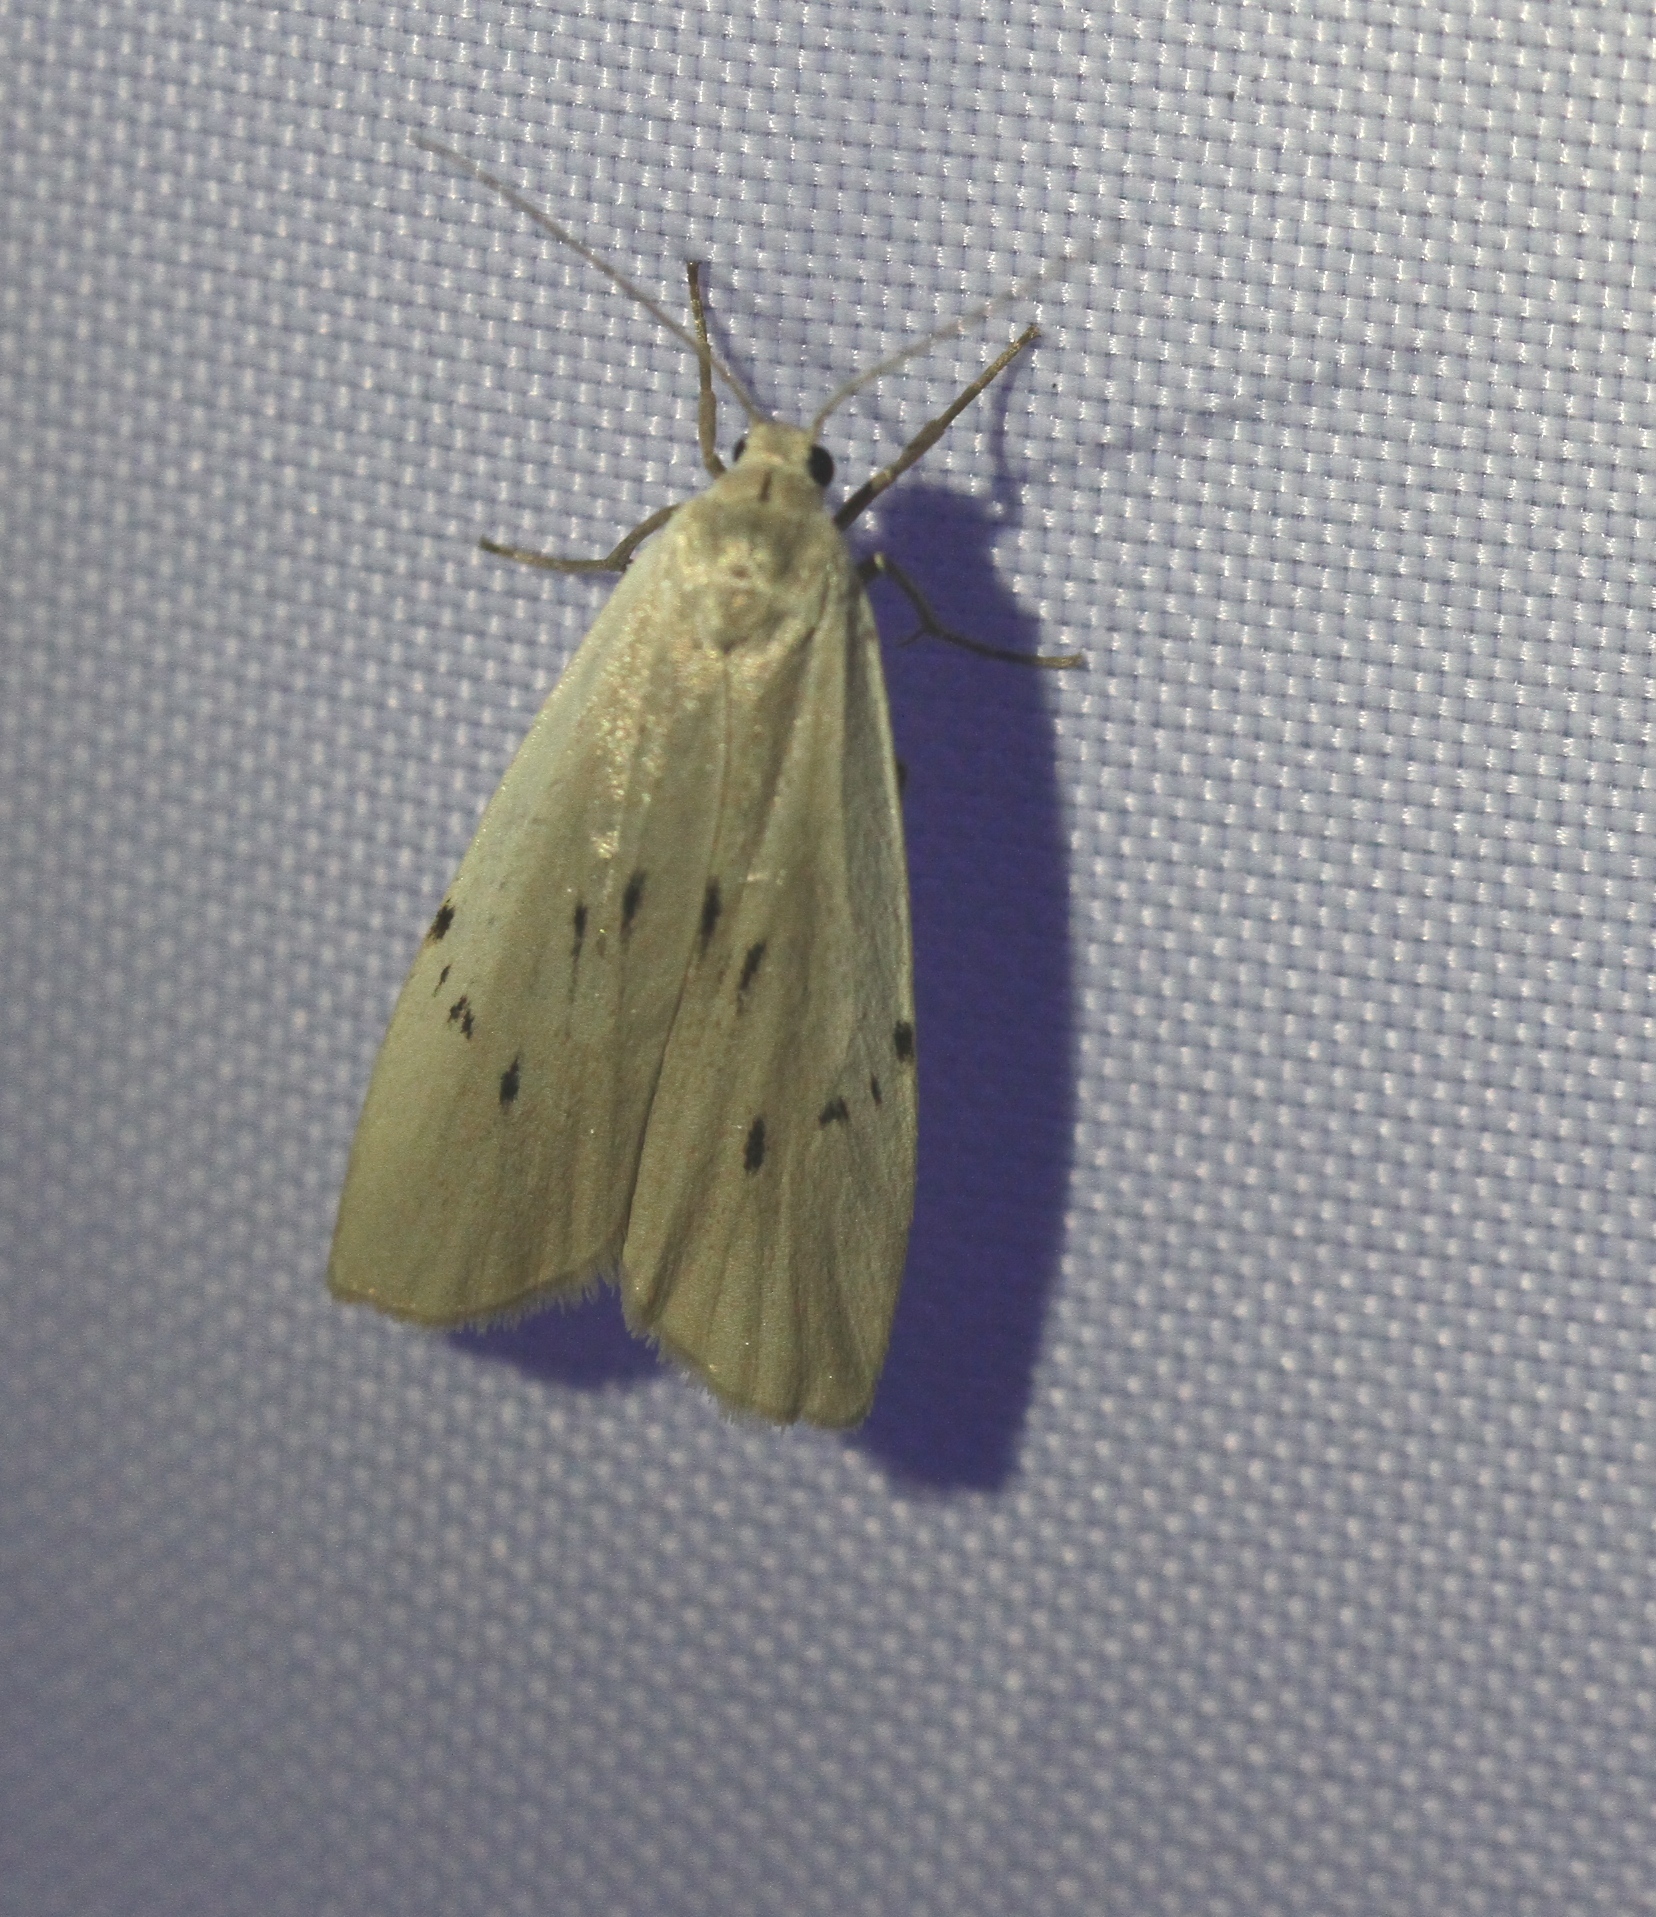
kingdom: Animalia
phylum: Arthropoda
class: Insecta
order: Lepidoptera
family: Erebidae
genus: Pelosia
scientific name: Pelosia muscerda
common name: Dotted footman
